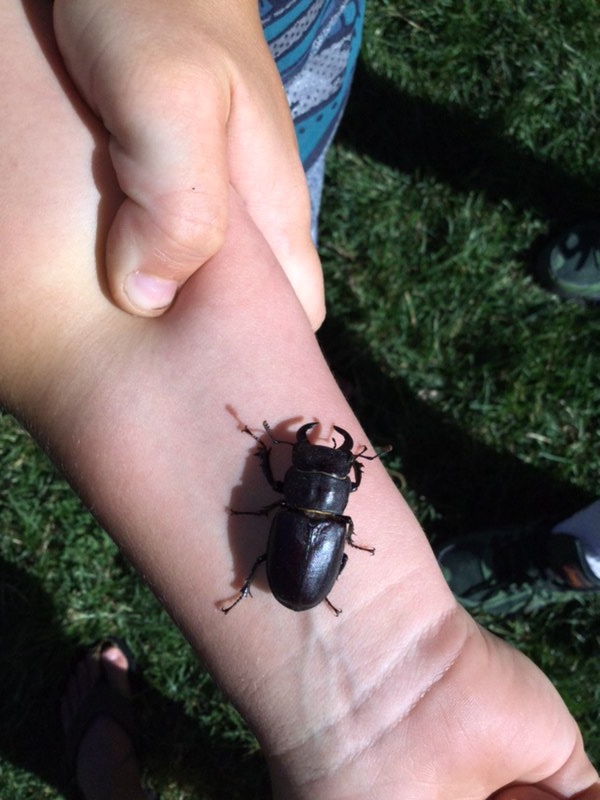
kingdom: Animalia
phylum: Arthropoda
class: Insecta
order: Coleoptera
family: Lucanidae
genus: Lucanus
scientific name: Lucanus mazama
